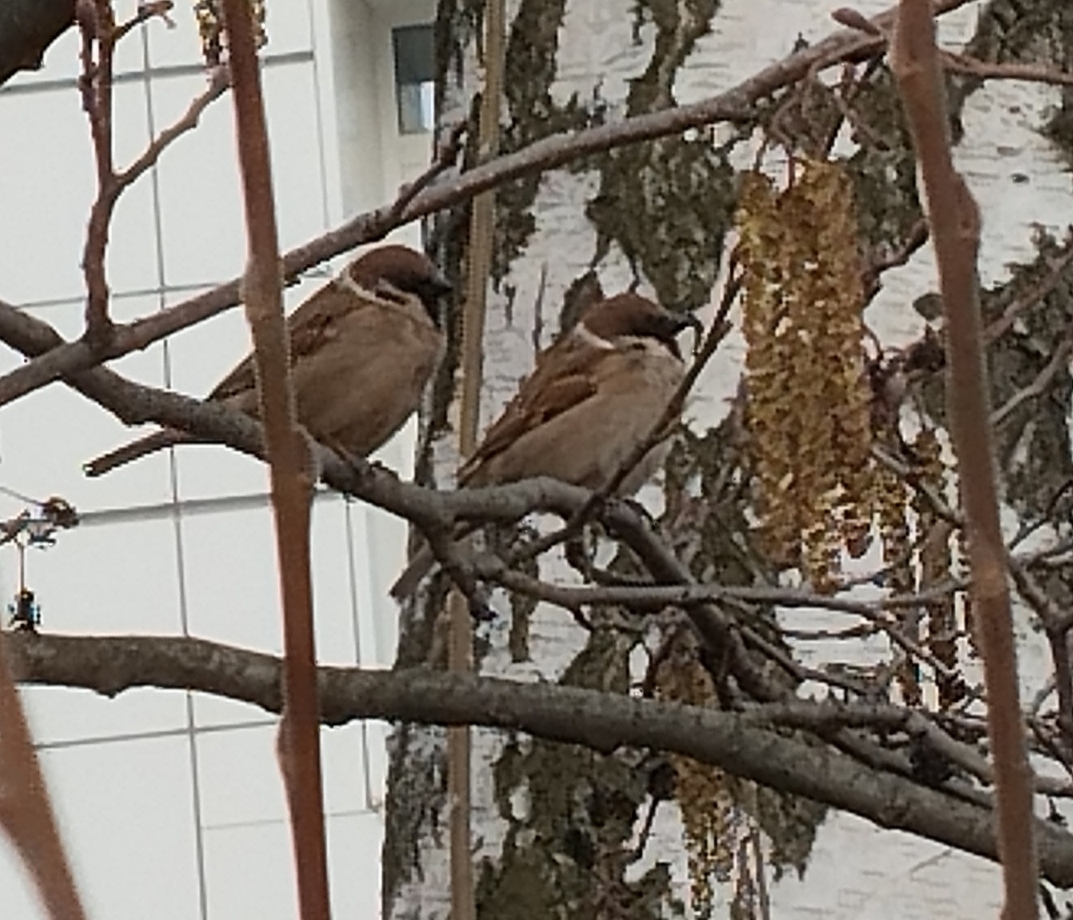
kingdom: Animalia
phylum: Chordata
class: Aves
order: Passeriformes
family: Passeridae
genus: Passer
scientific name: Passer montanus
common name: Eurasian tree sparrow
